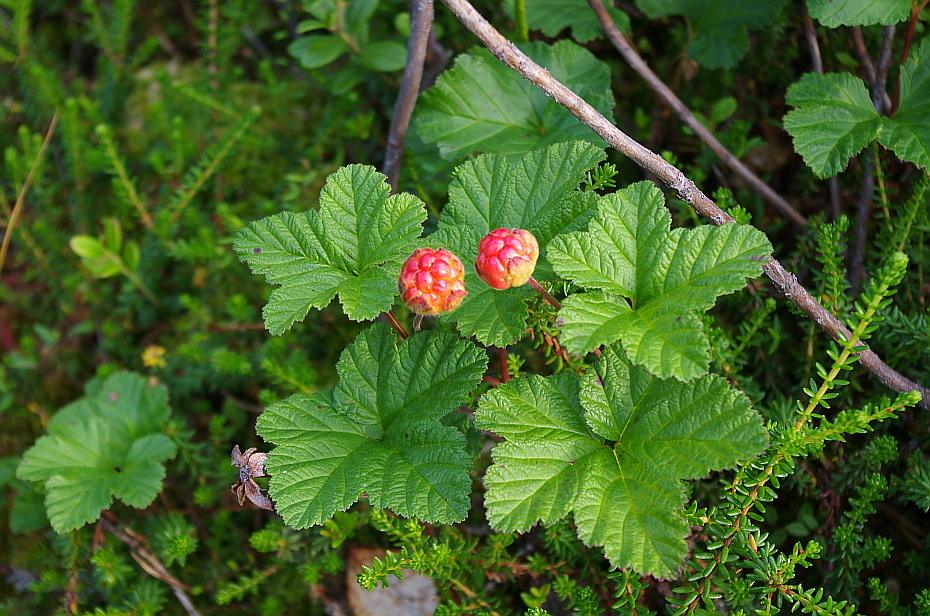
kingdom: Plantae
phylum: Tracheophyta
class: Magnoliopsida
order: Rosales
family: Rosaceae
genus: Rubus
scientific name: Rubus chamaemorus
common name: Cloudberry
